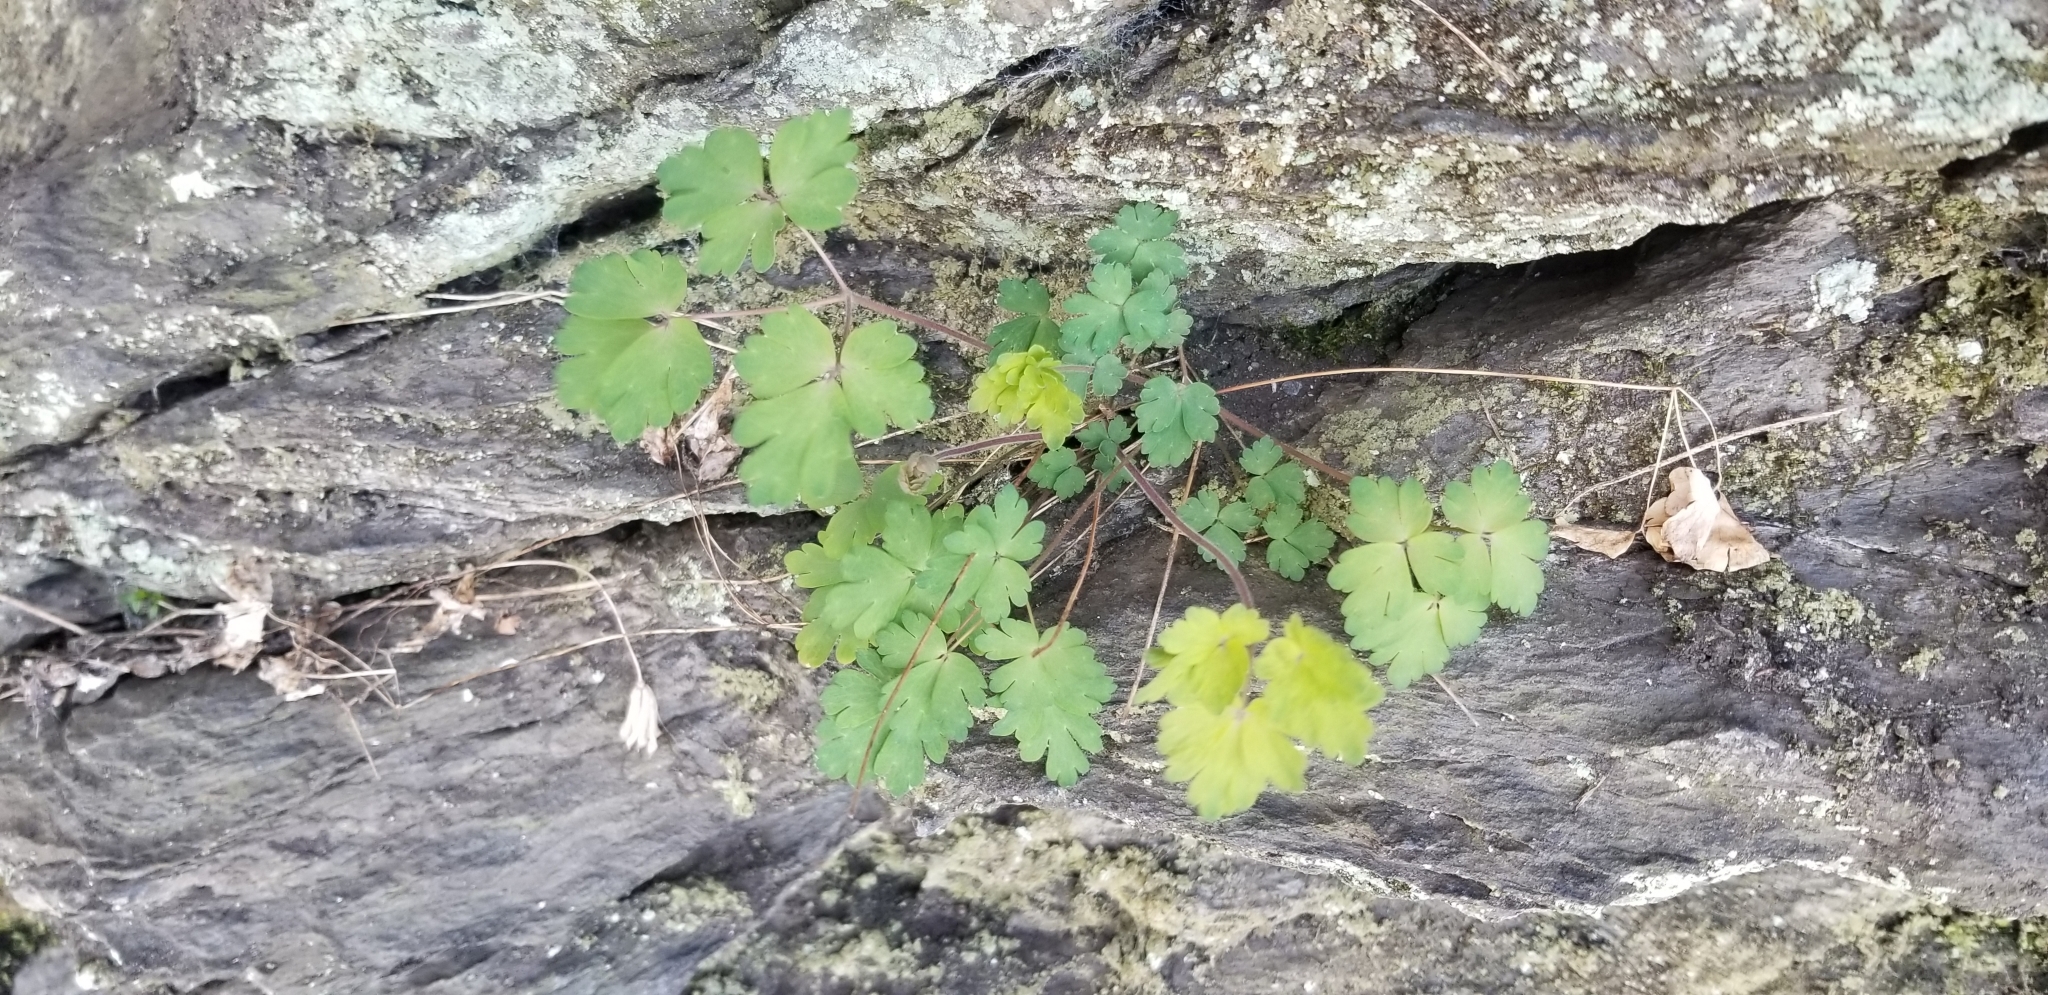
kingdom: Plantae
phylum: Tracheophyta
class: Magnoliopsida
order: Ranunculales
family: Ranunculaceae
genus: Aquilegia
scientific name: Aquilegia canadensis
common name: American columbine
